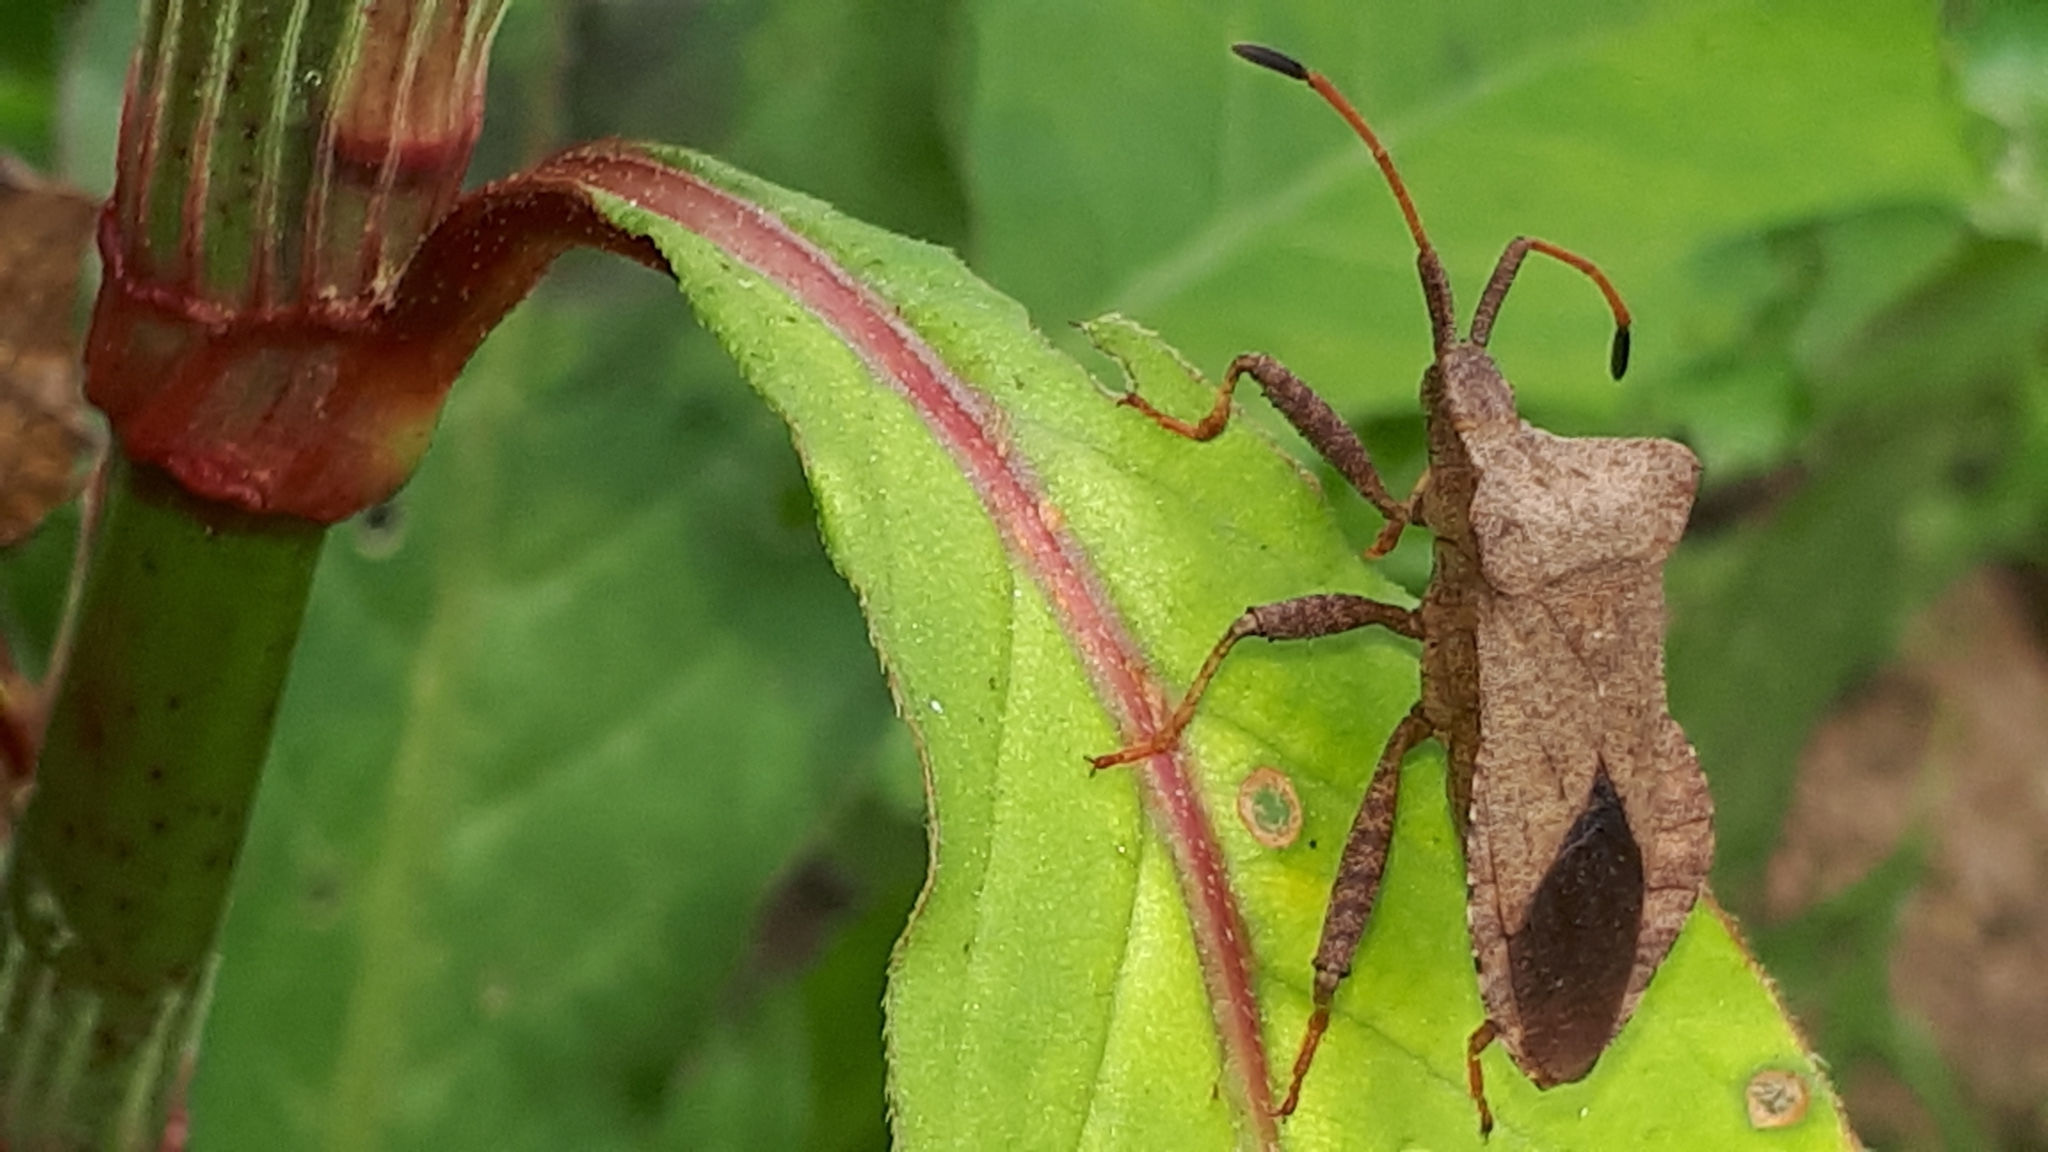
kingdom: Animalia
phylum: Arthropoda
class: Insecta
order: Hemiptera
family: Coreidae
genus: Coreus
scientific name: Coreus marginatus
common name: Dock bug
